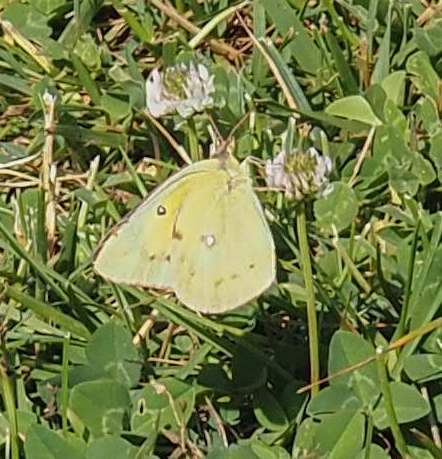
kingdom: Animalia
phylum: Arthropoda
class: Insecta
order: Lepidoptera
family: Pieridae
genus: Colias
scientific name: Colias eurytheme
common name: Alfalfa butterfly
